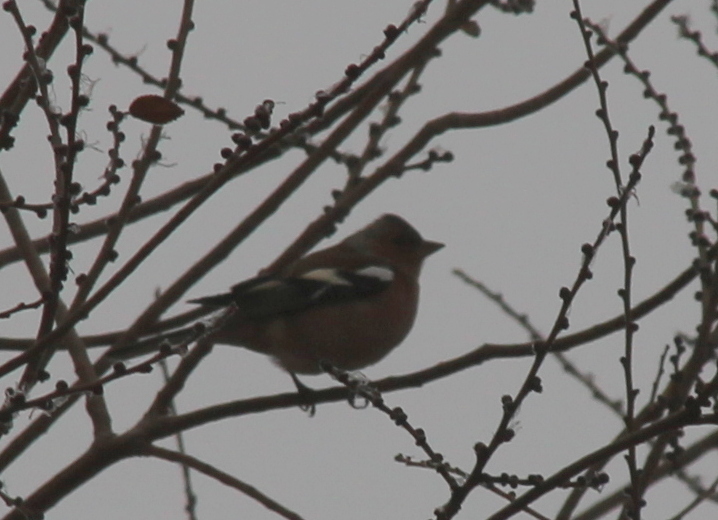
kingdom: Animalia
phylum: Chordata
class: Aves
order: Passeriformes
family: Fringillidae
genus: Fringilla
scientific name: Fringilla coelebs
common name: Common chaffinch
